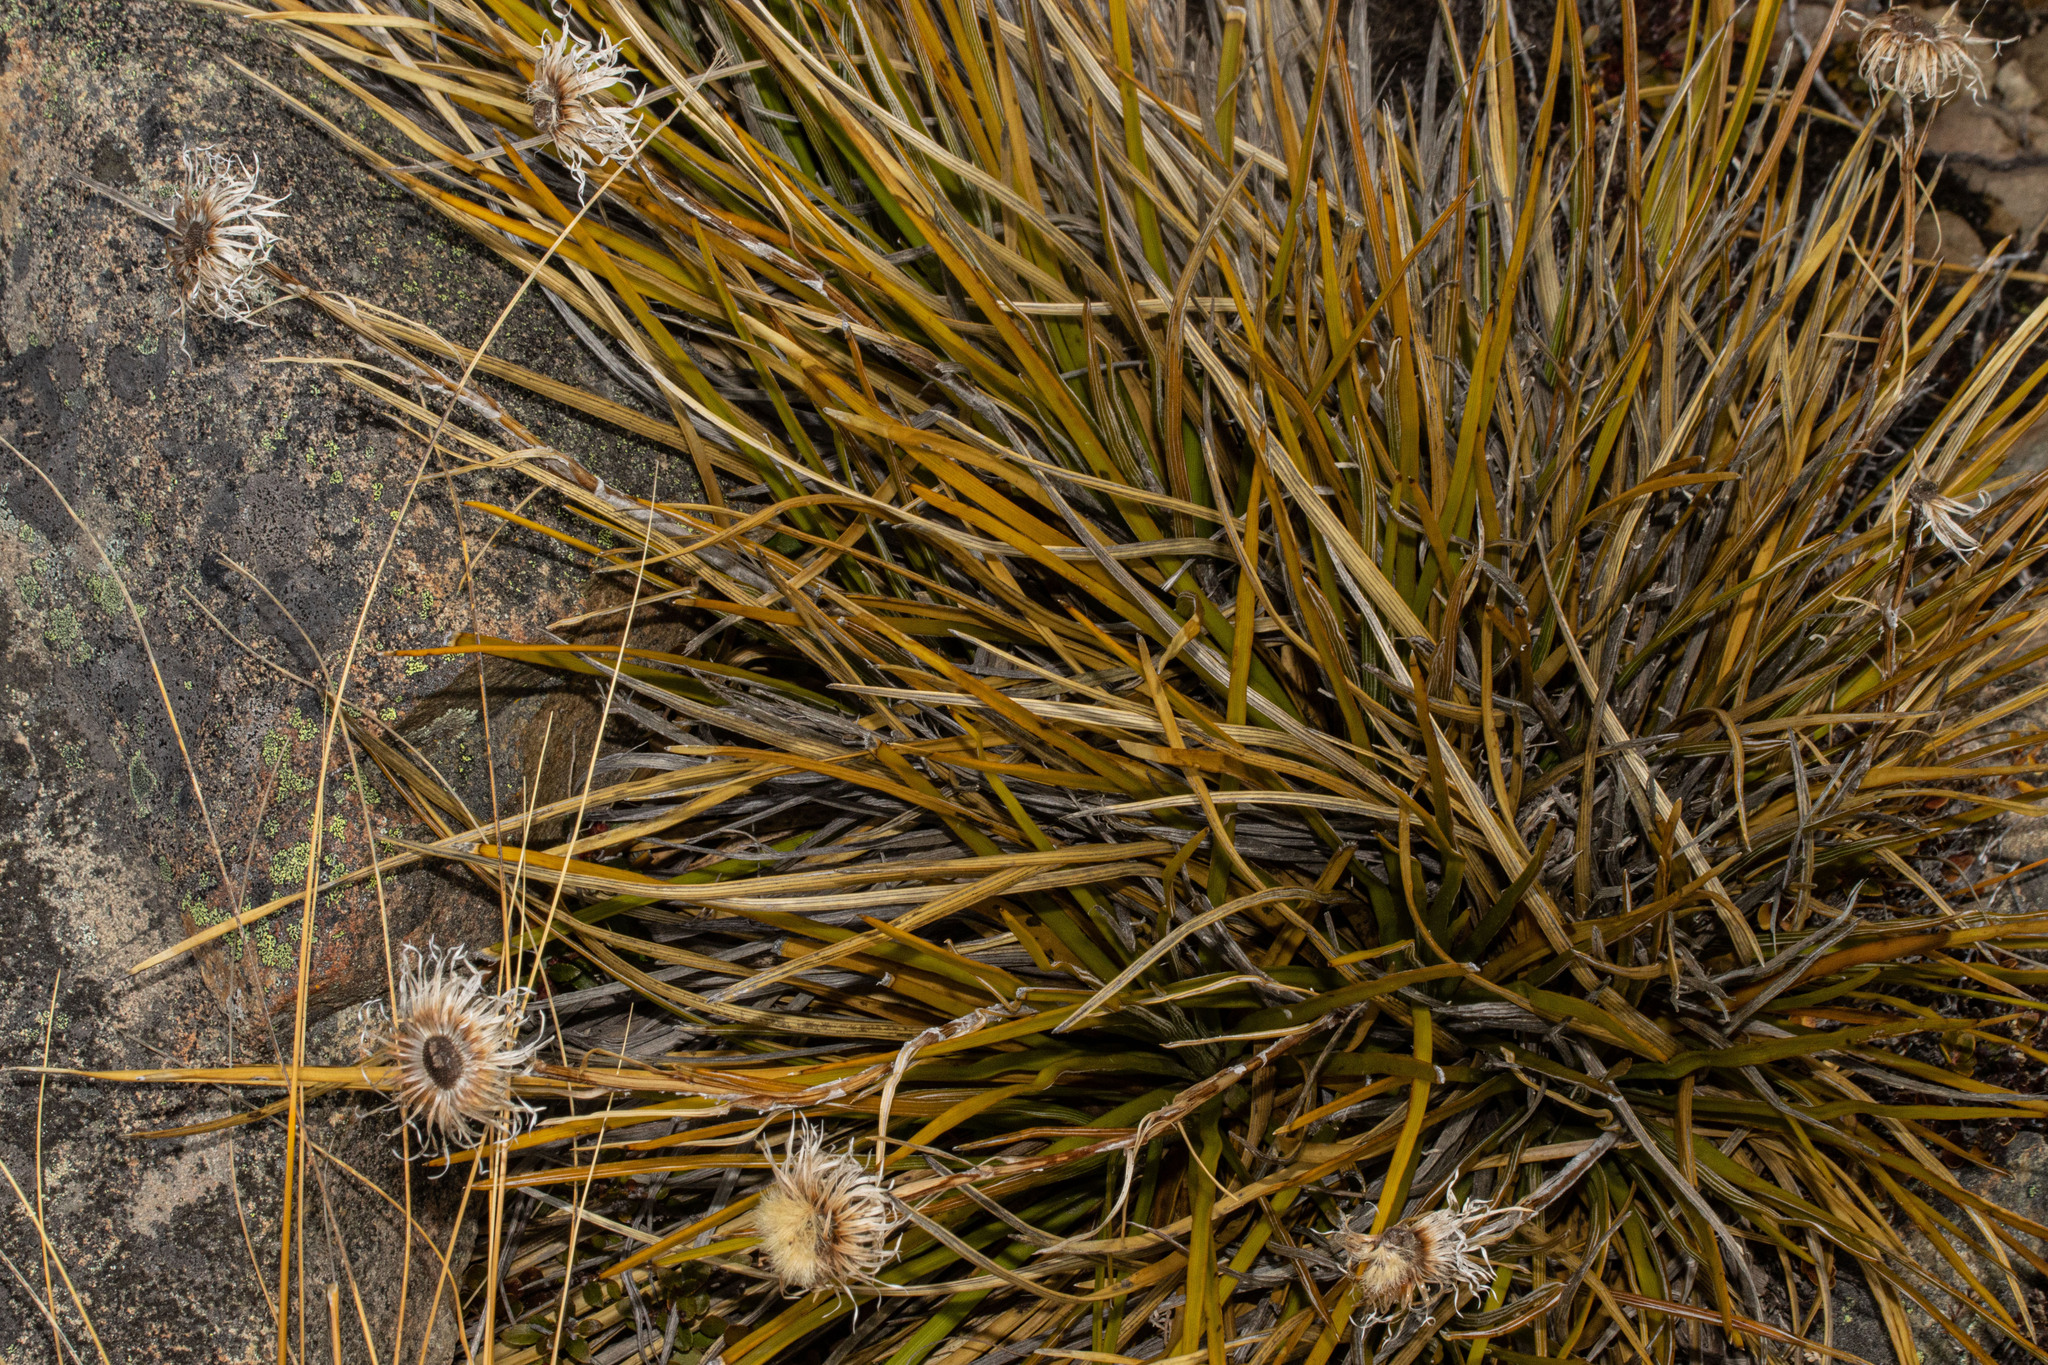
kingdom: Plantae
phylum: Tracheophyta
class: Magnoliopsida
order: Asterales
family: Asteraceae
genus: Celmisia
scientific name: Celmisia lyallii
